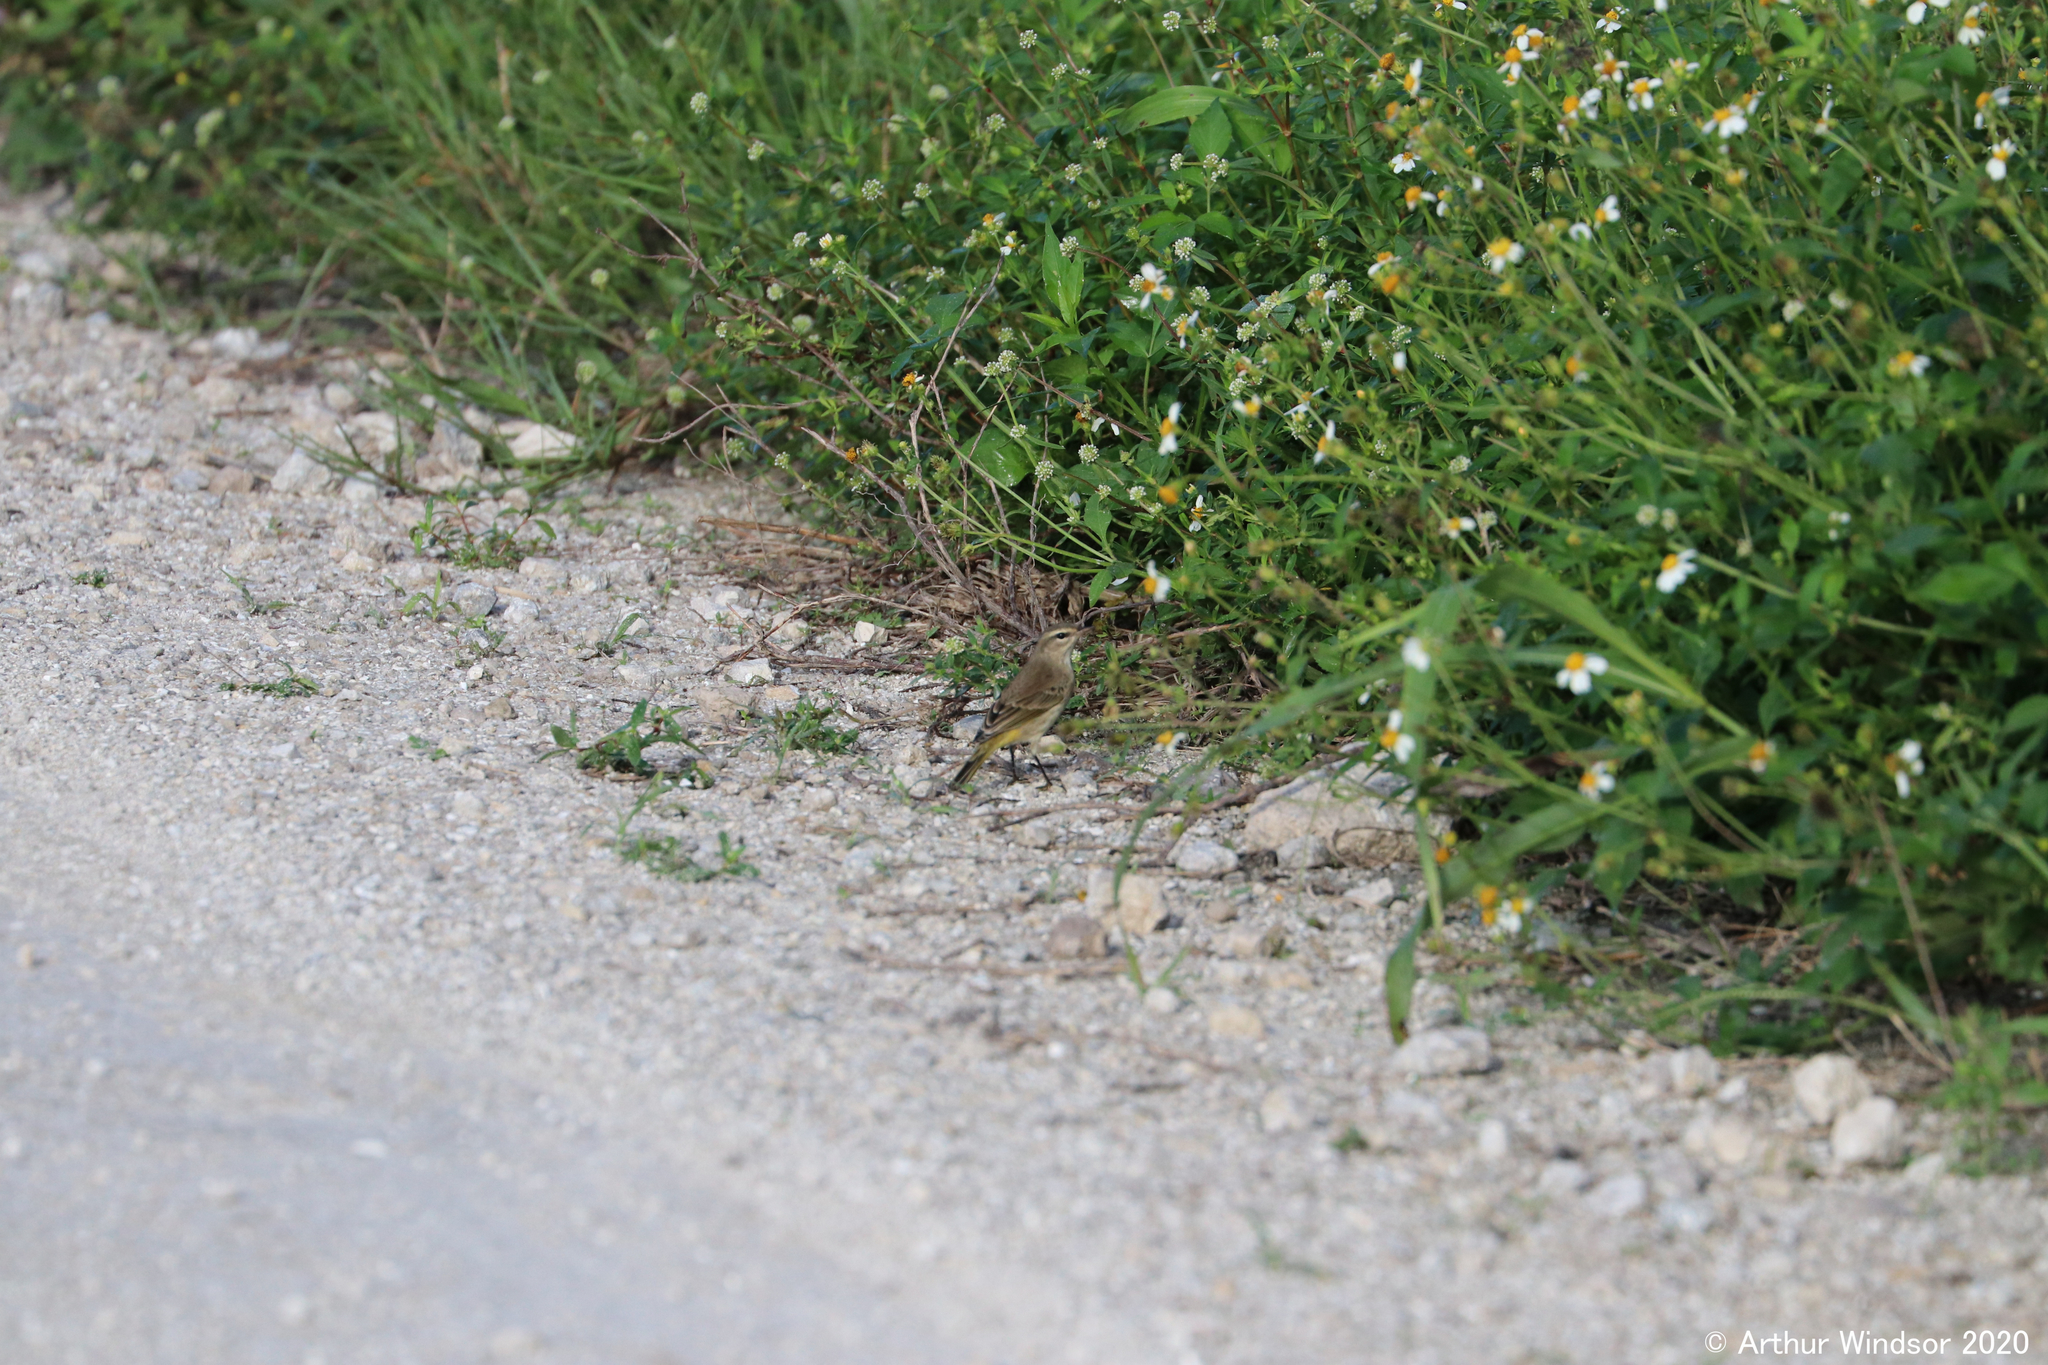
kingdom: Animalia
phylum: Chordata
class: Aves
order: Passeriformes
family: Parulidae
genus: Setophaga
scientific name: Setophaga palmarum
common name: Palm warbler
